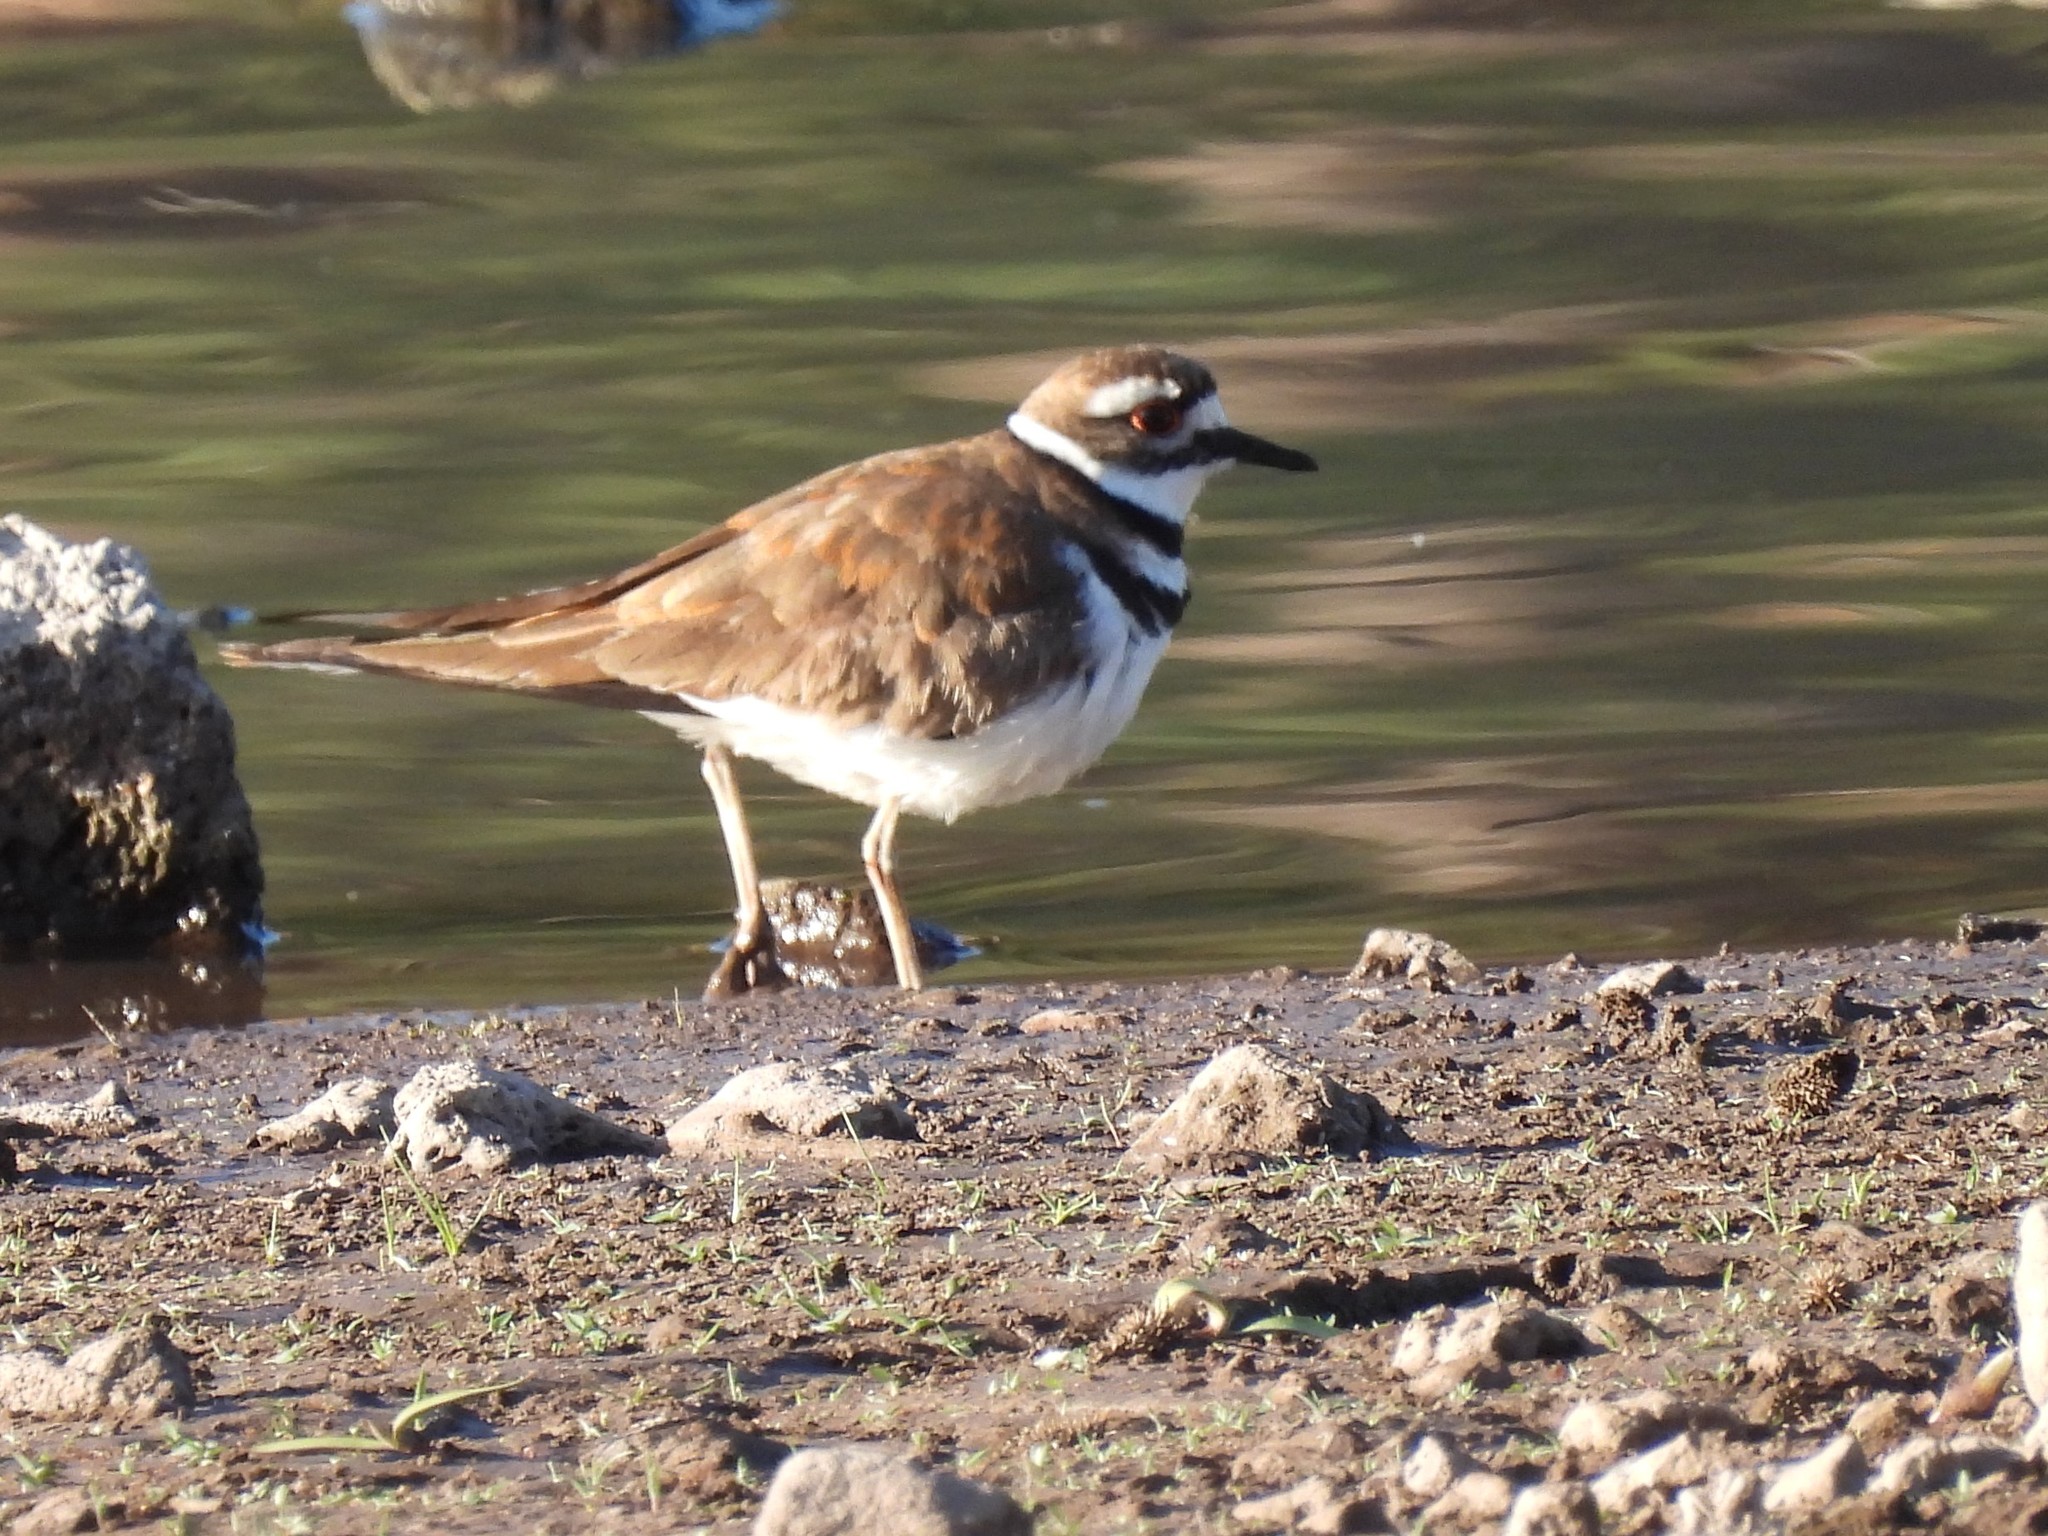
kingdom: Animalia
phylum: Chordata
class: Aves
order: Charadriiformes
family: Charadriidae
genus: Charadrius
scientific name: Charadrius vociferus
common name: Killdeer
